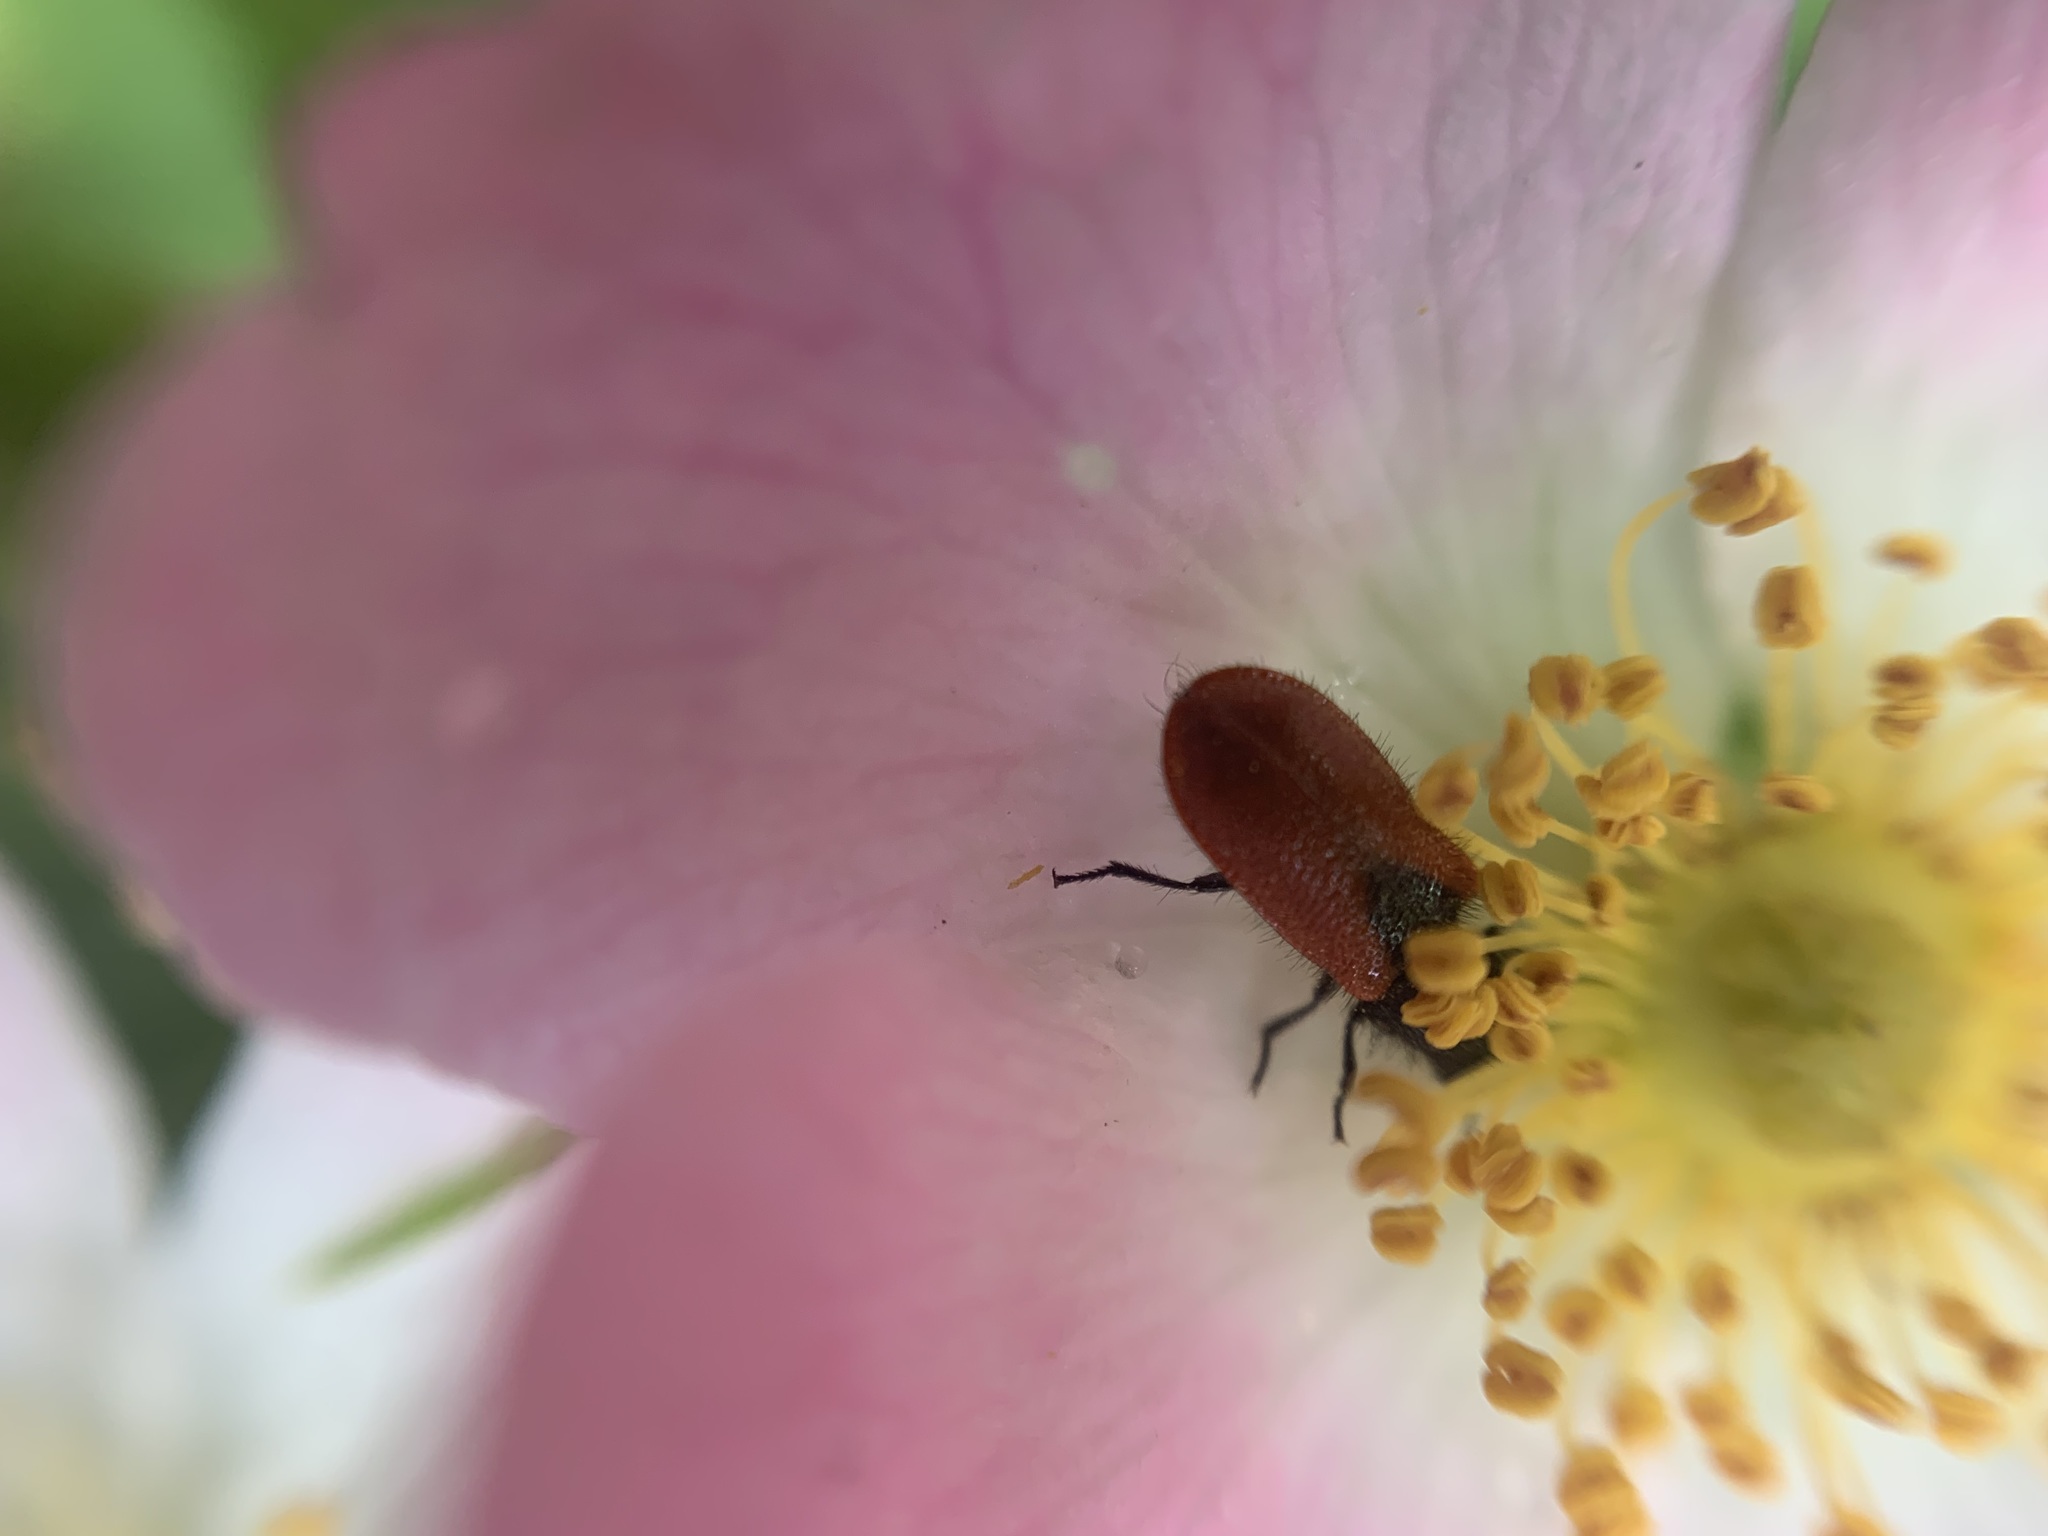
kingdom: Animalia
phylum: Arthropoda
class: Insecta
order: Coleoptera
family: Melyridae
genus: Arthrobrachus
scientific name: Arthrobrachus nigromaculatus
